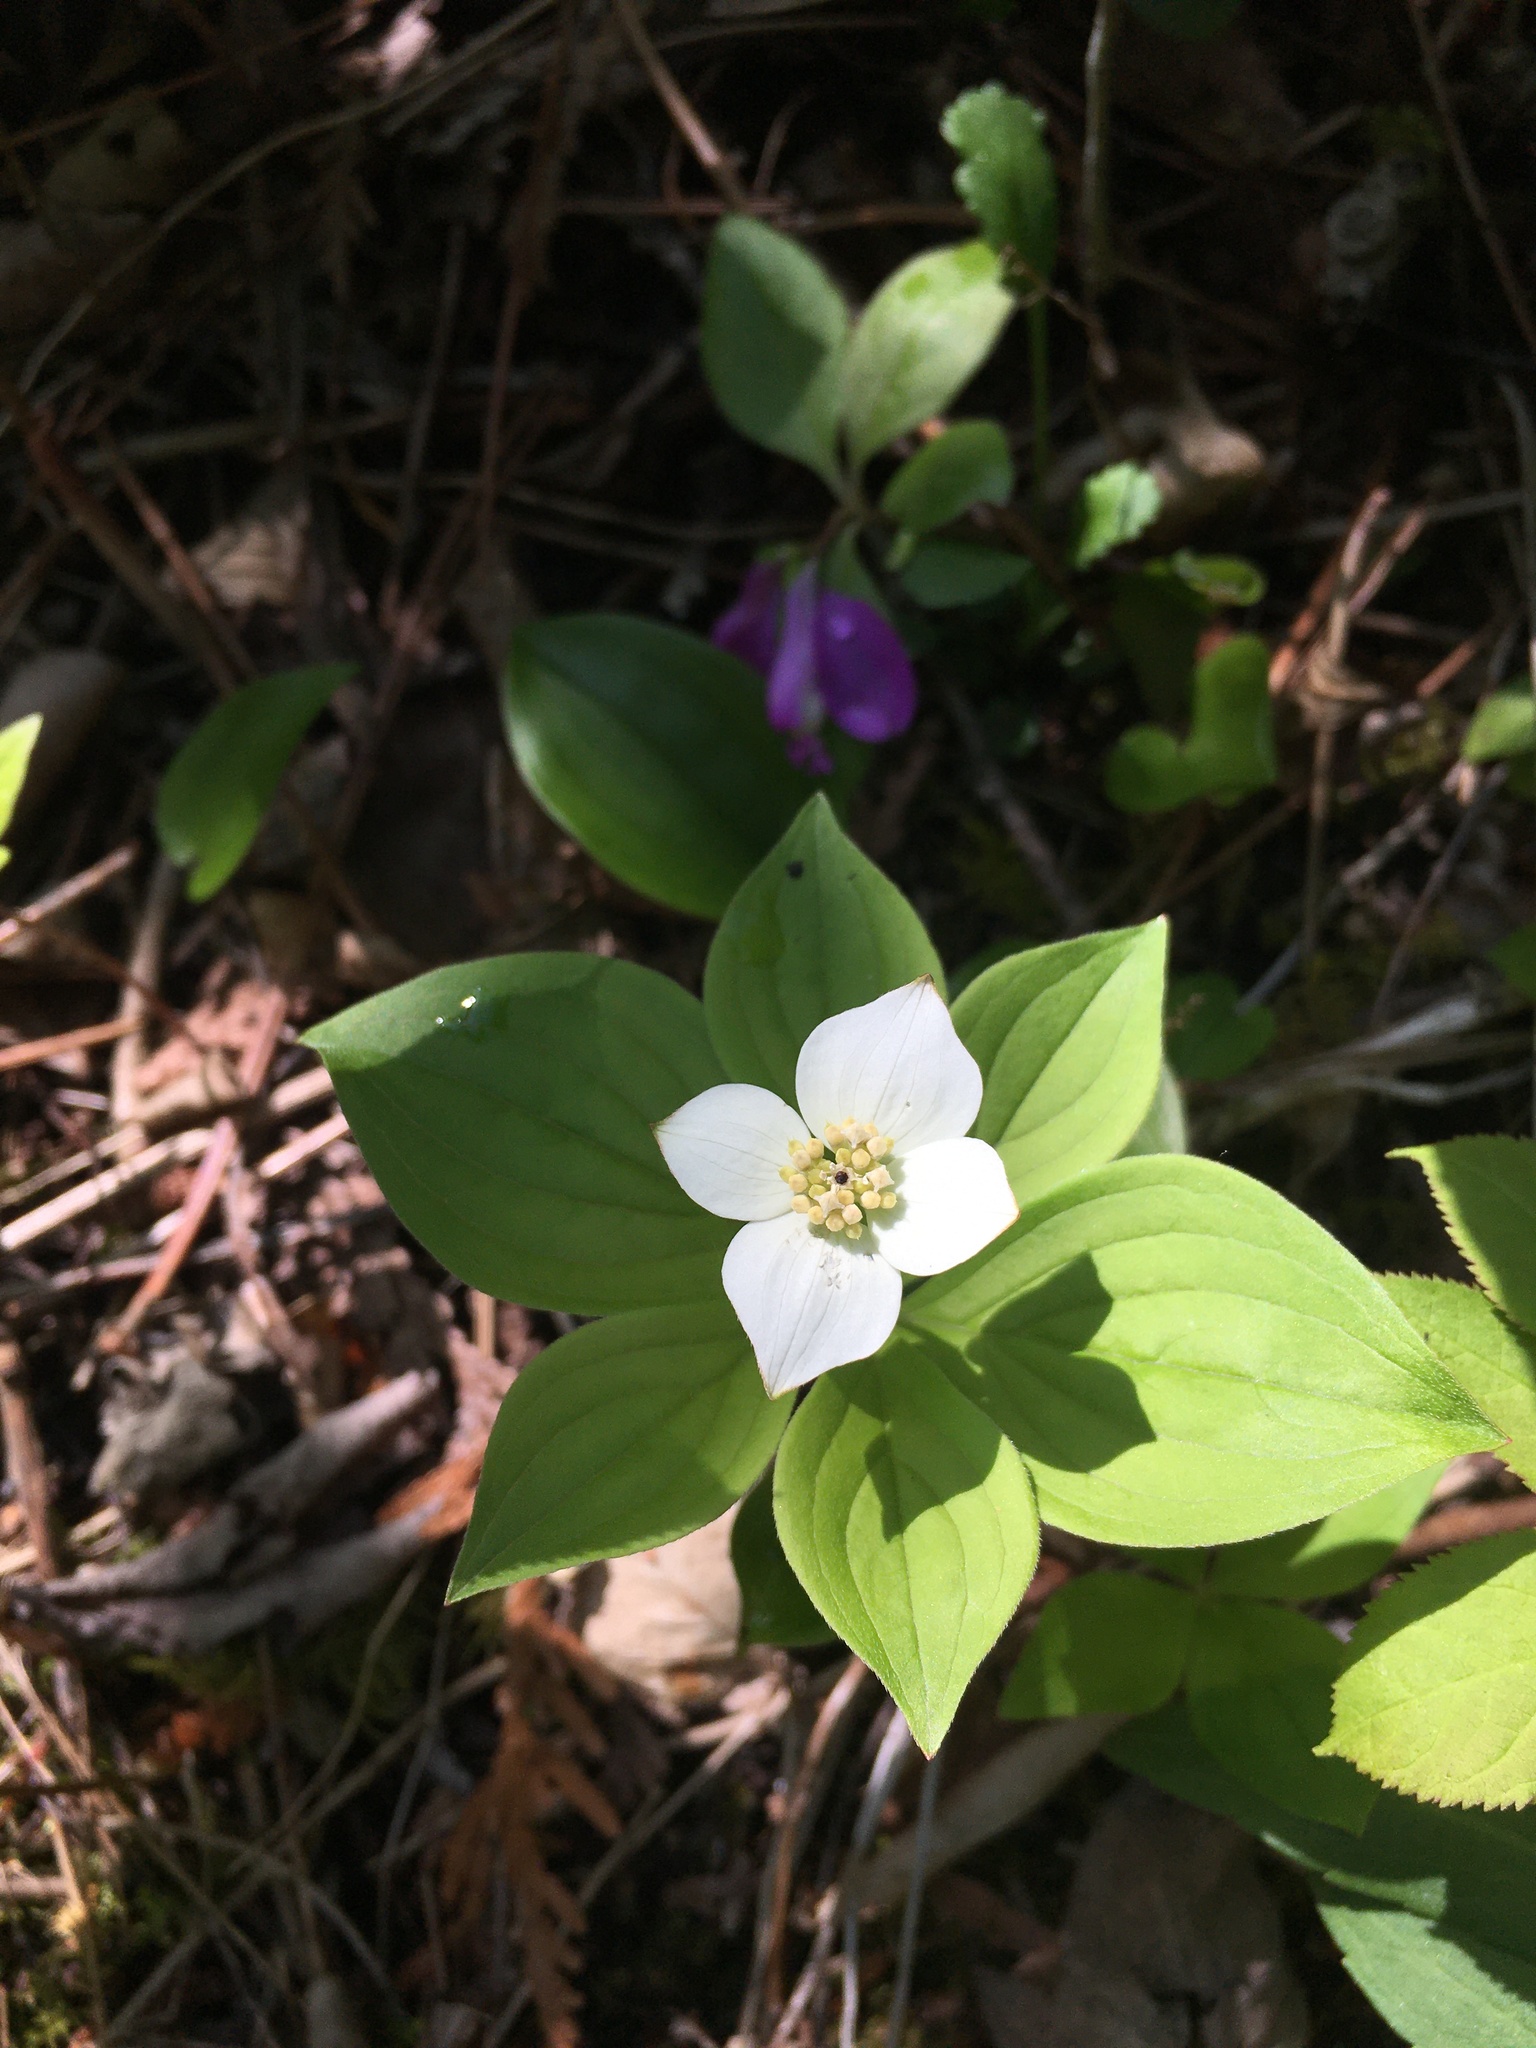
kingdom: Plantae
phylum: Tracheophyta
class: Magnoliopsida
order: Cornales
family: Cornaceae
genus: Cornus
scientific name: Cornus canadensis
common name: Creeping dogwood
